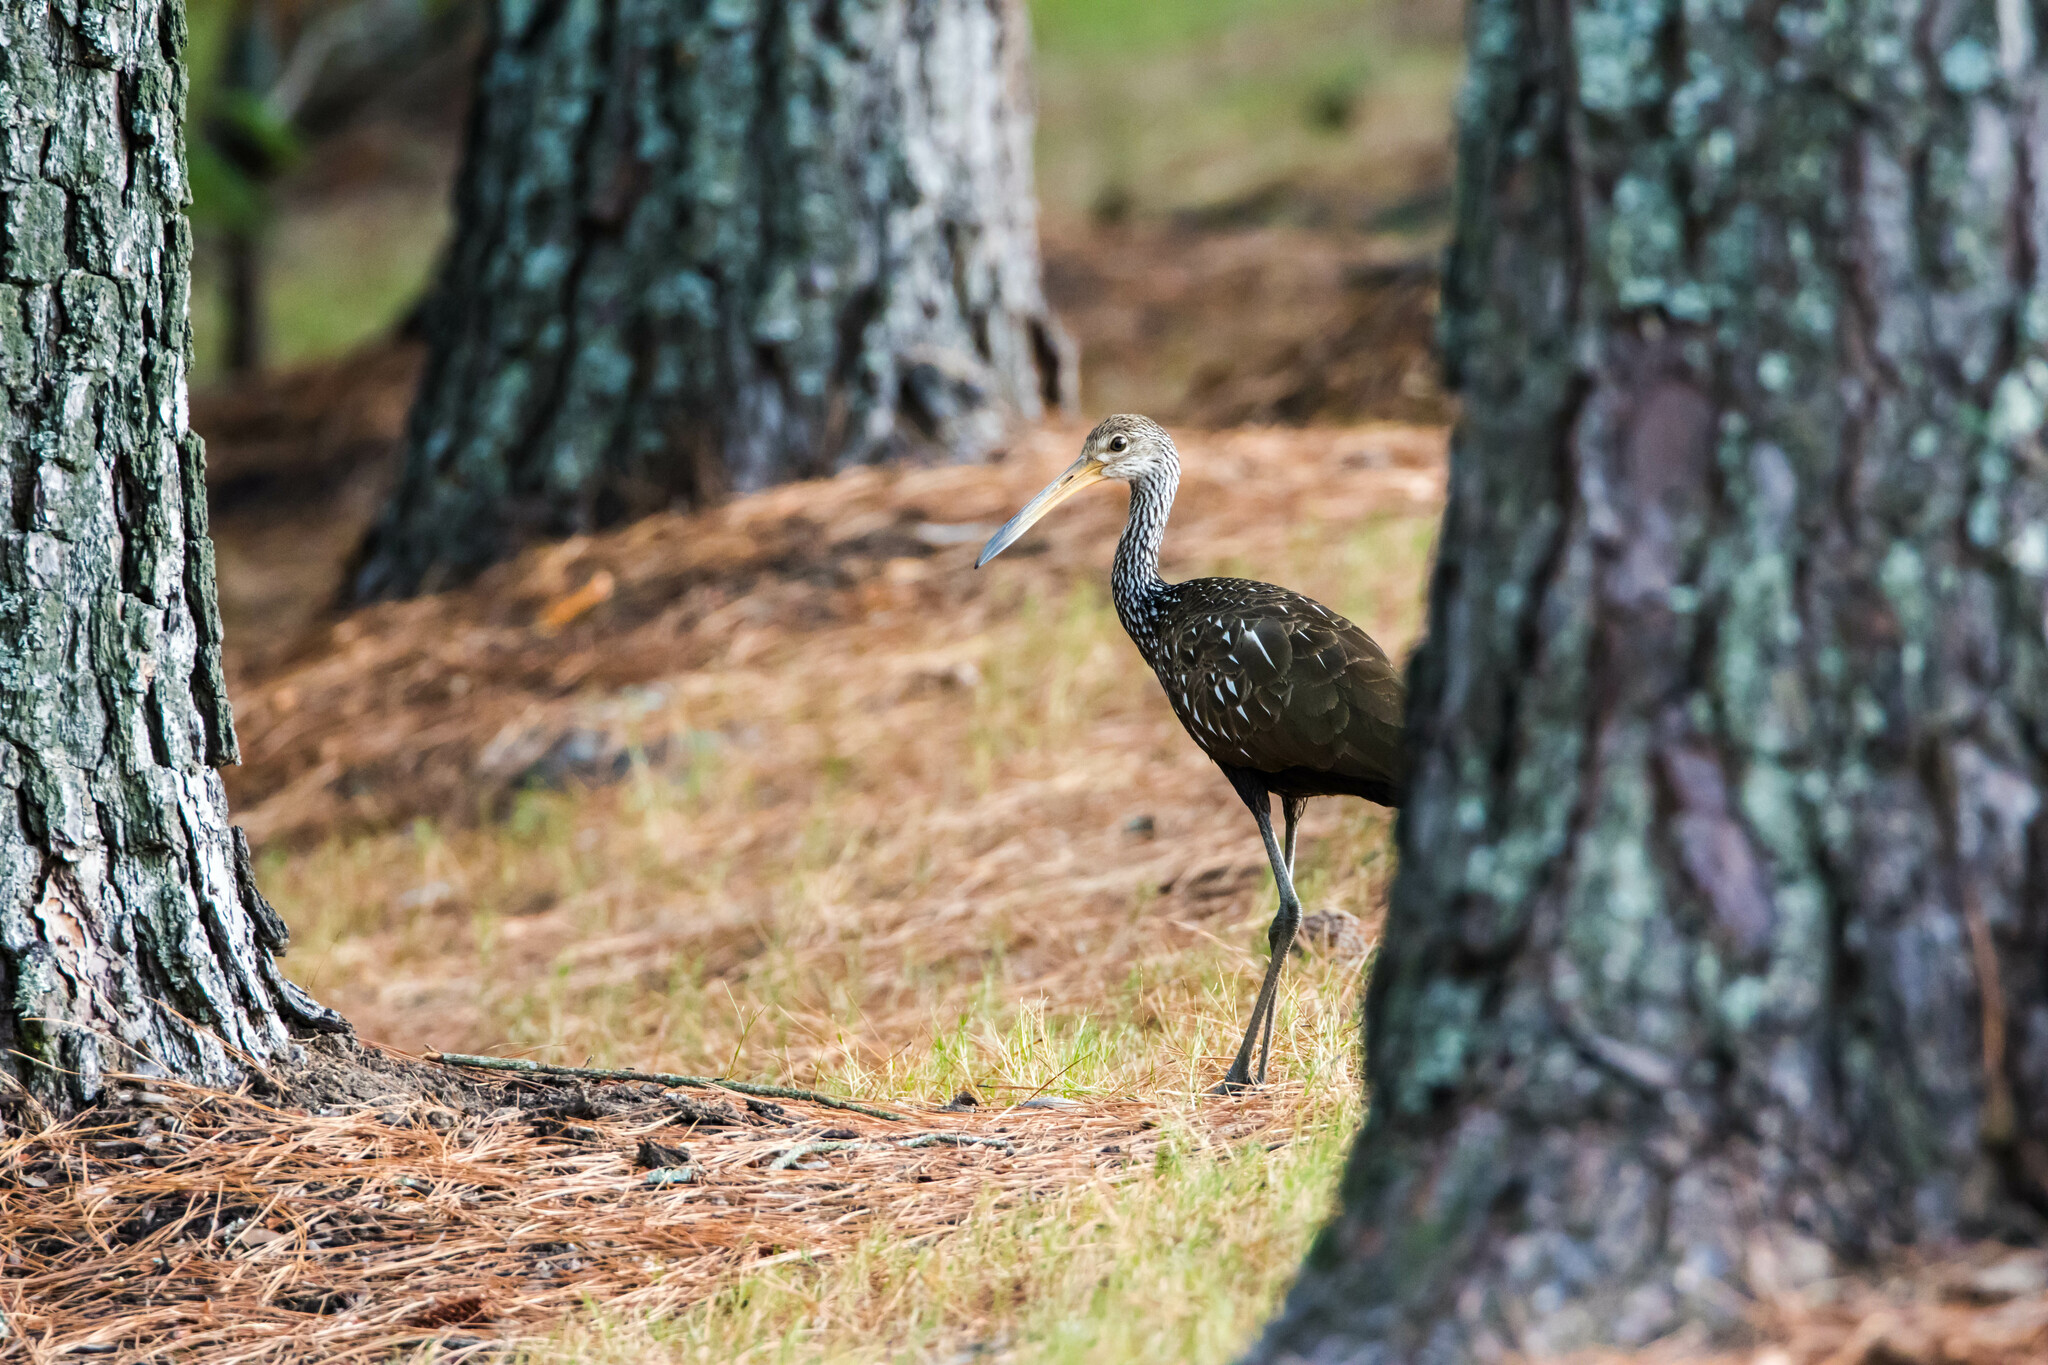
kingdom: Animalia
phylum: Chordata
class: Aves
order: Gruiformes
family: Aramidae
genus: Aramus
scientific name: Aramus guarauna
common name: Limpkin
